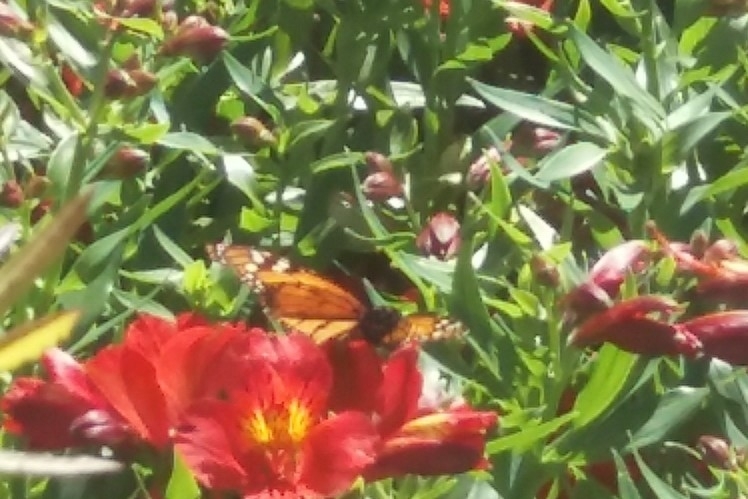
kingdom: Animalia
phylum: Arthropoda
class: Insecta
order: Lepidoptera
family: Nymphalidae
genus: Danaus
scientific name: Danaus plexippus
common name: Monarch
